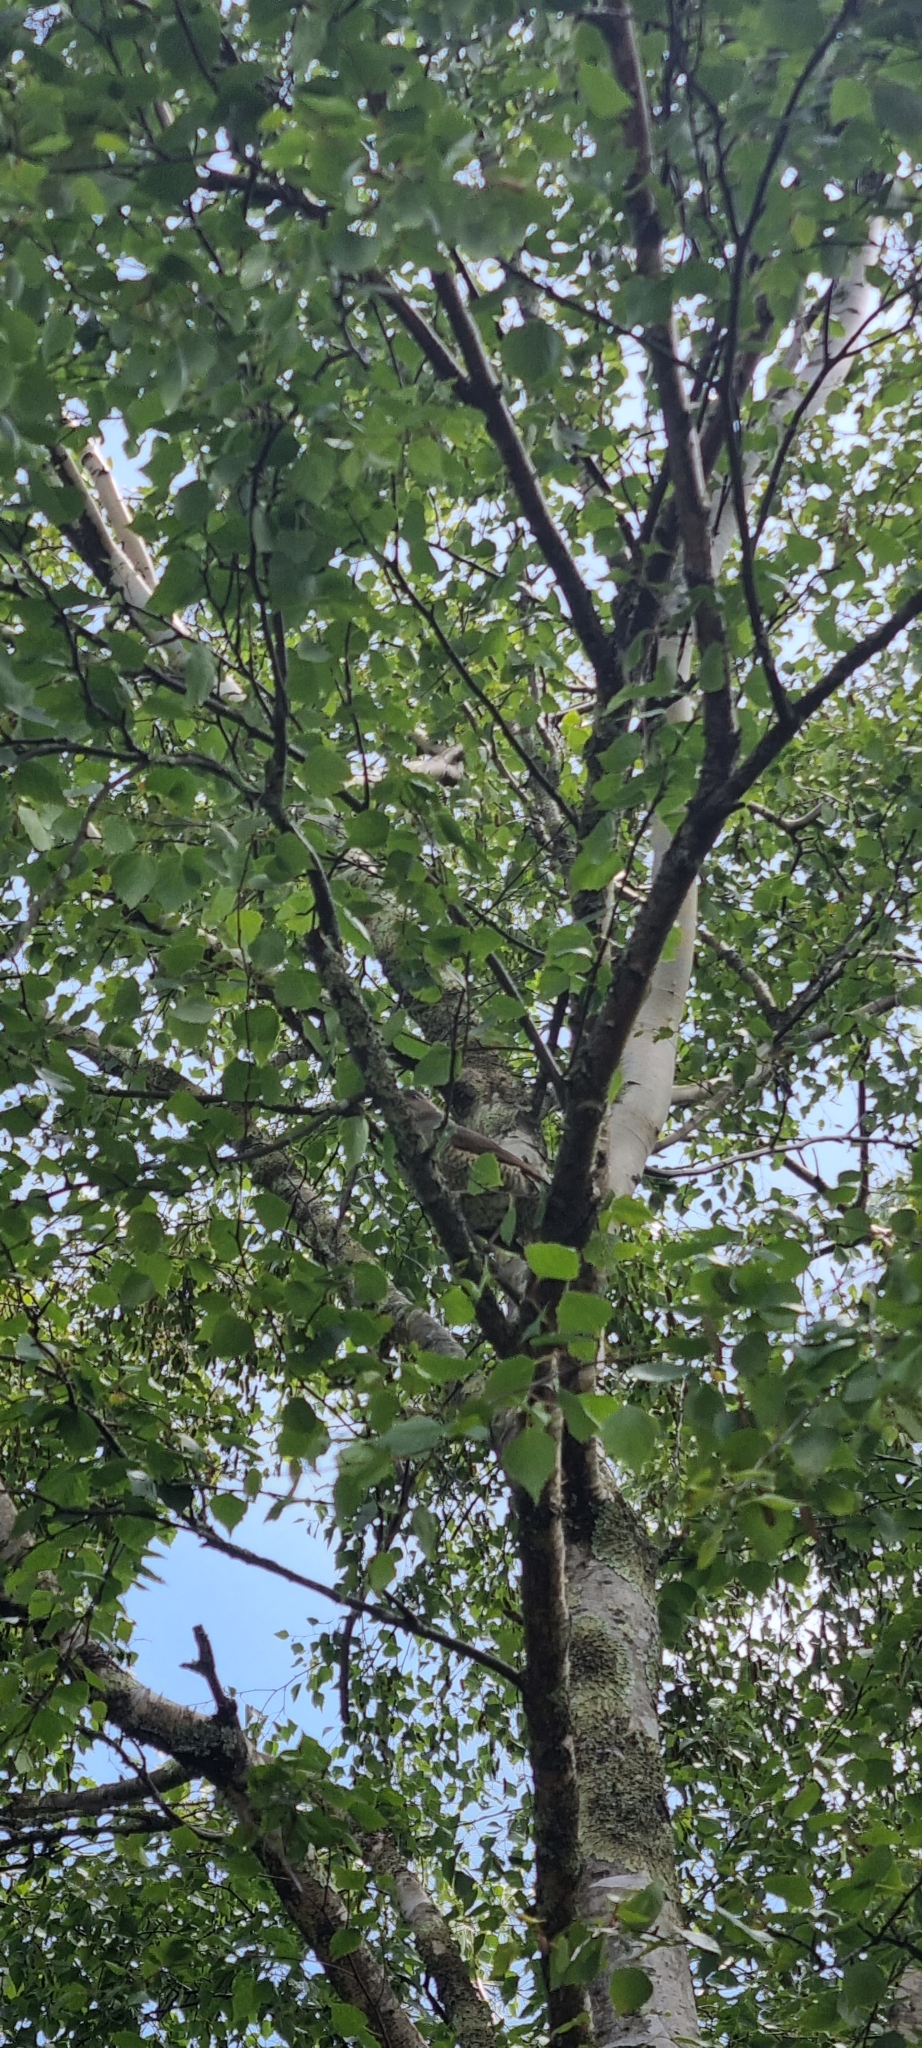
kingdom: Animalia
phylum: Chordata
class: Aves
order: Passeriformes
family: Ptilonorhynchidae
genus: Ptilonorhynchus
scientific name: Ptilonorhynchus violaceus
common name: Satin bowerbird
